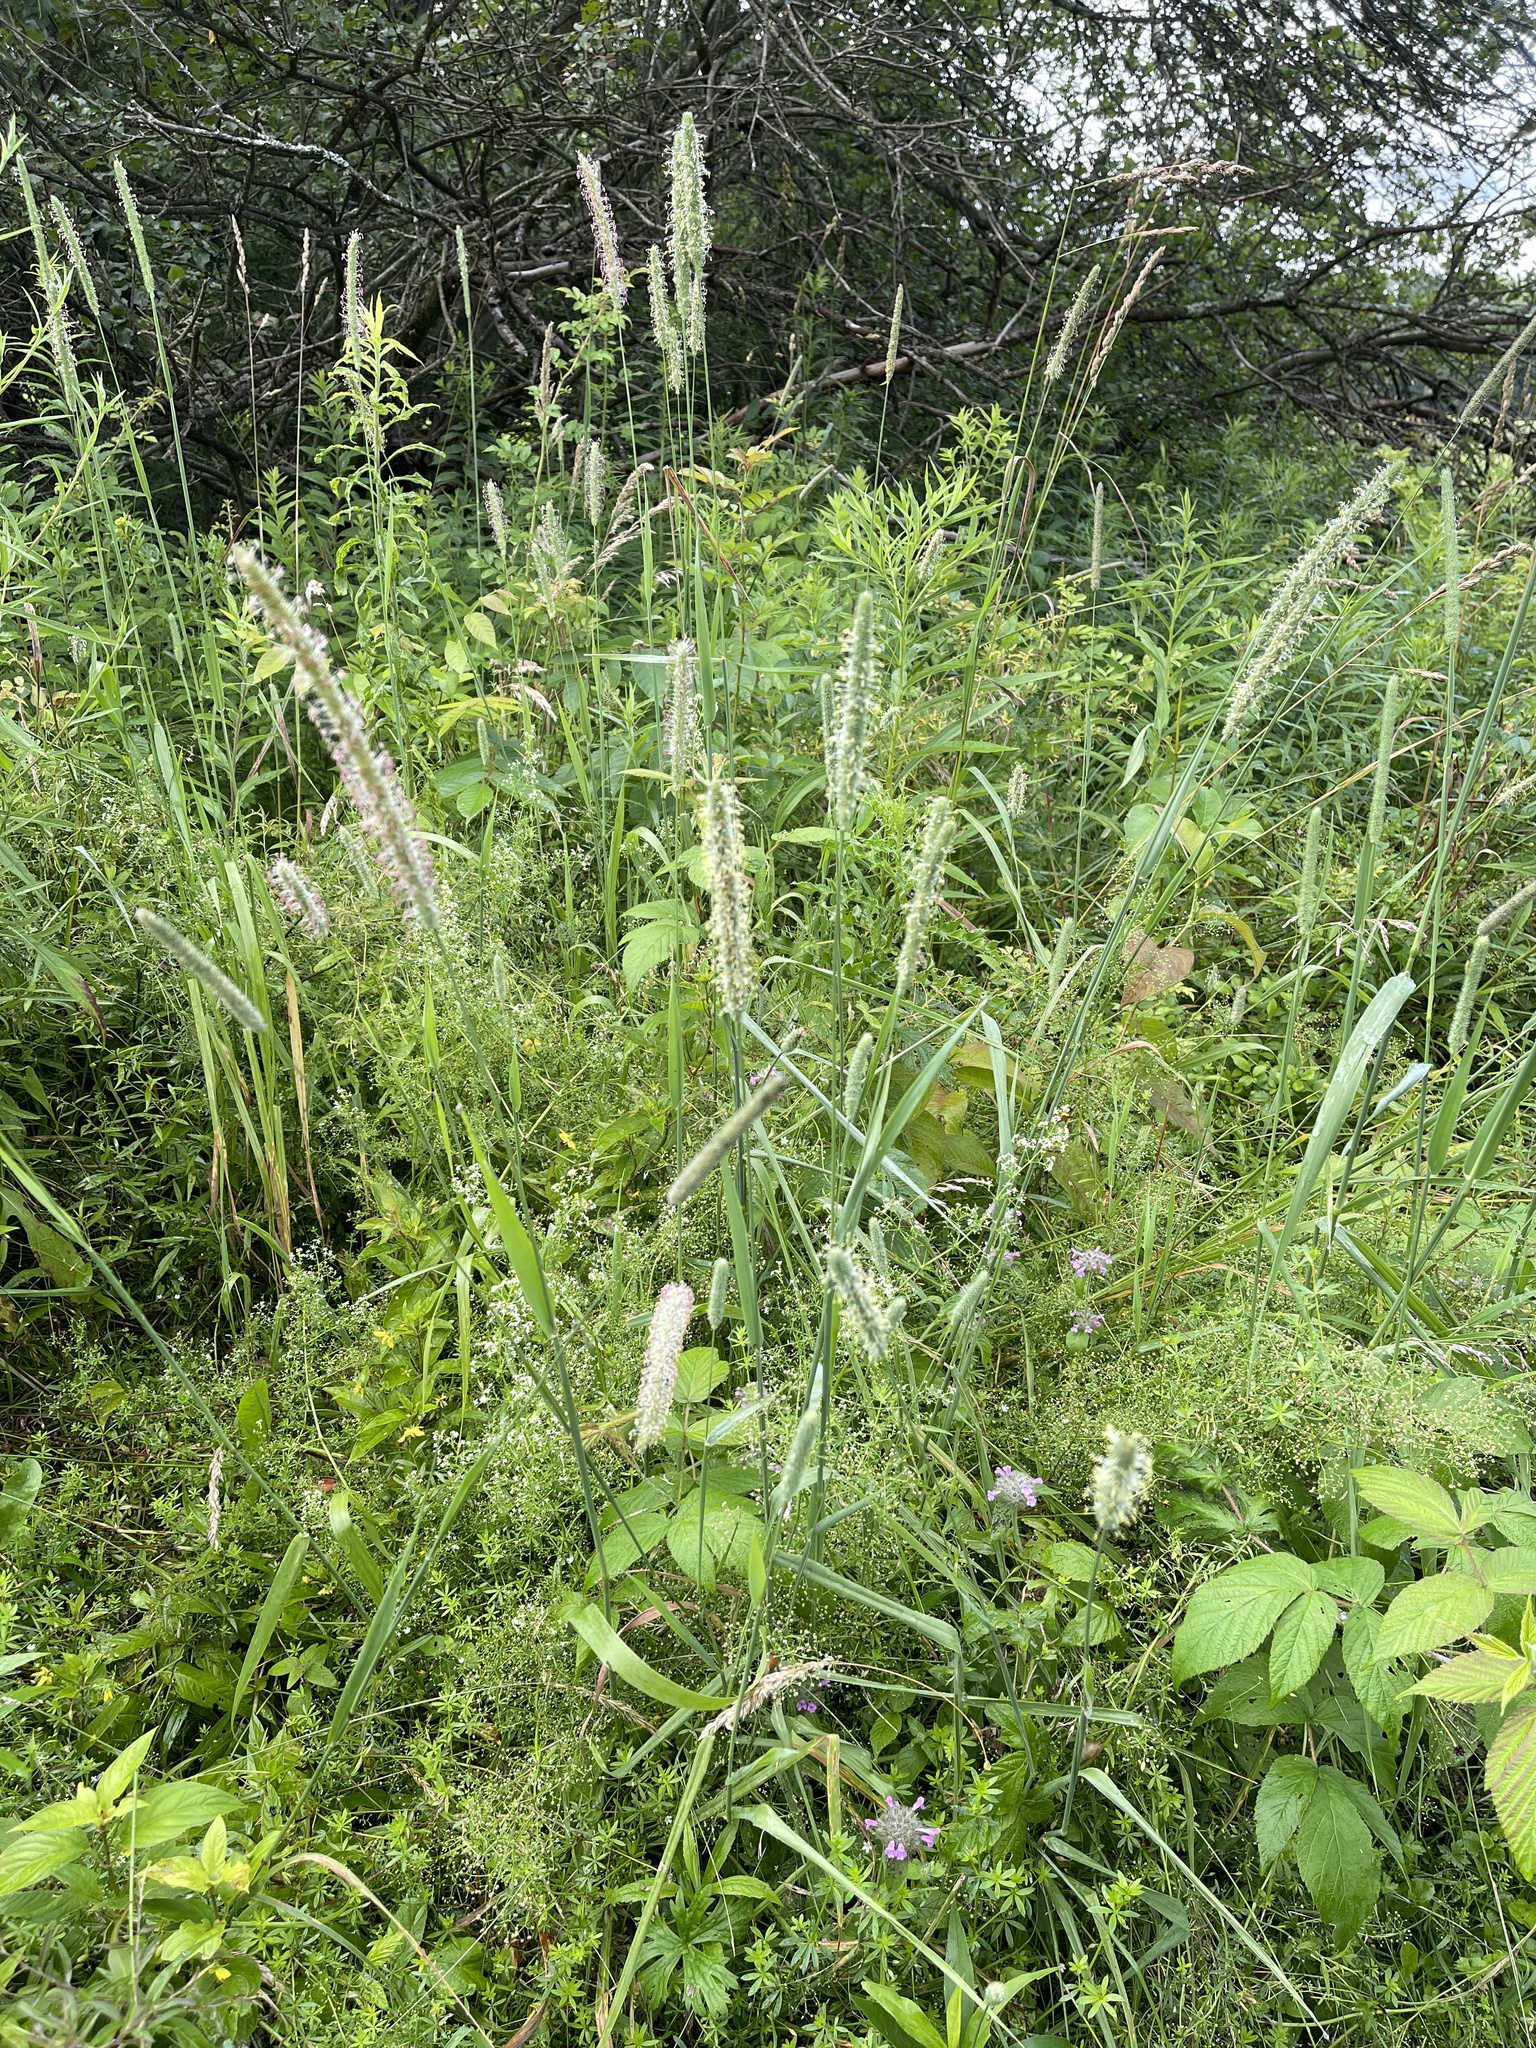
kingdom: Plantae
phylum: Tracheophyta
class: Liliopsida
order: Poales
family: Poaceae
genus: Phleum
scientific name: Phleum pratense
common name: Timothy grass
